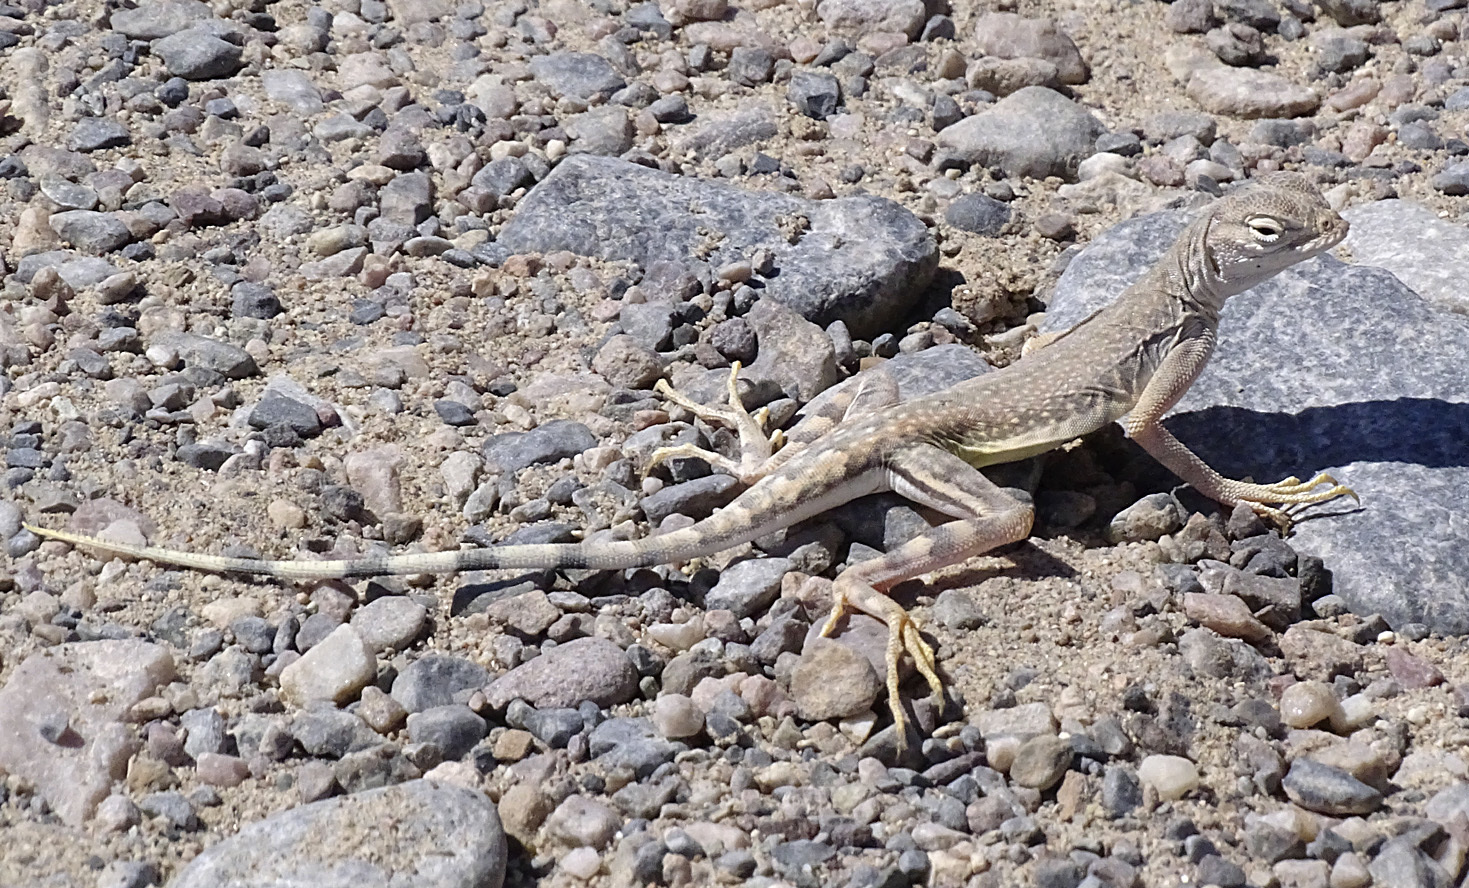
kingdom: Animalia
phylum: Chordata
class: Squamata
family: Phrynosomatidae
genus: Callisaurus
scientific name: Callisaurus draconoides
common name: Zebra-tailed lizard
